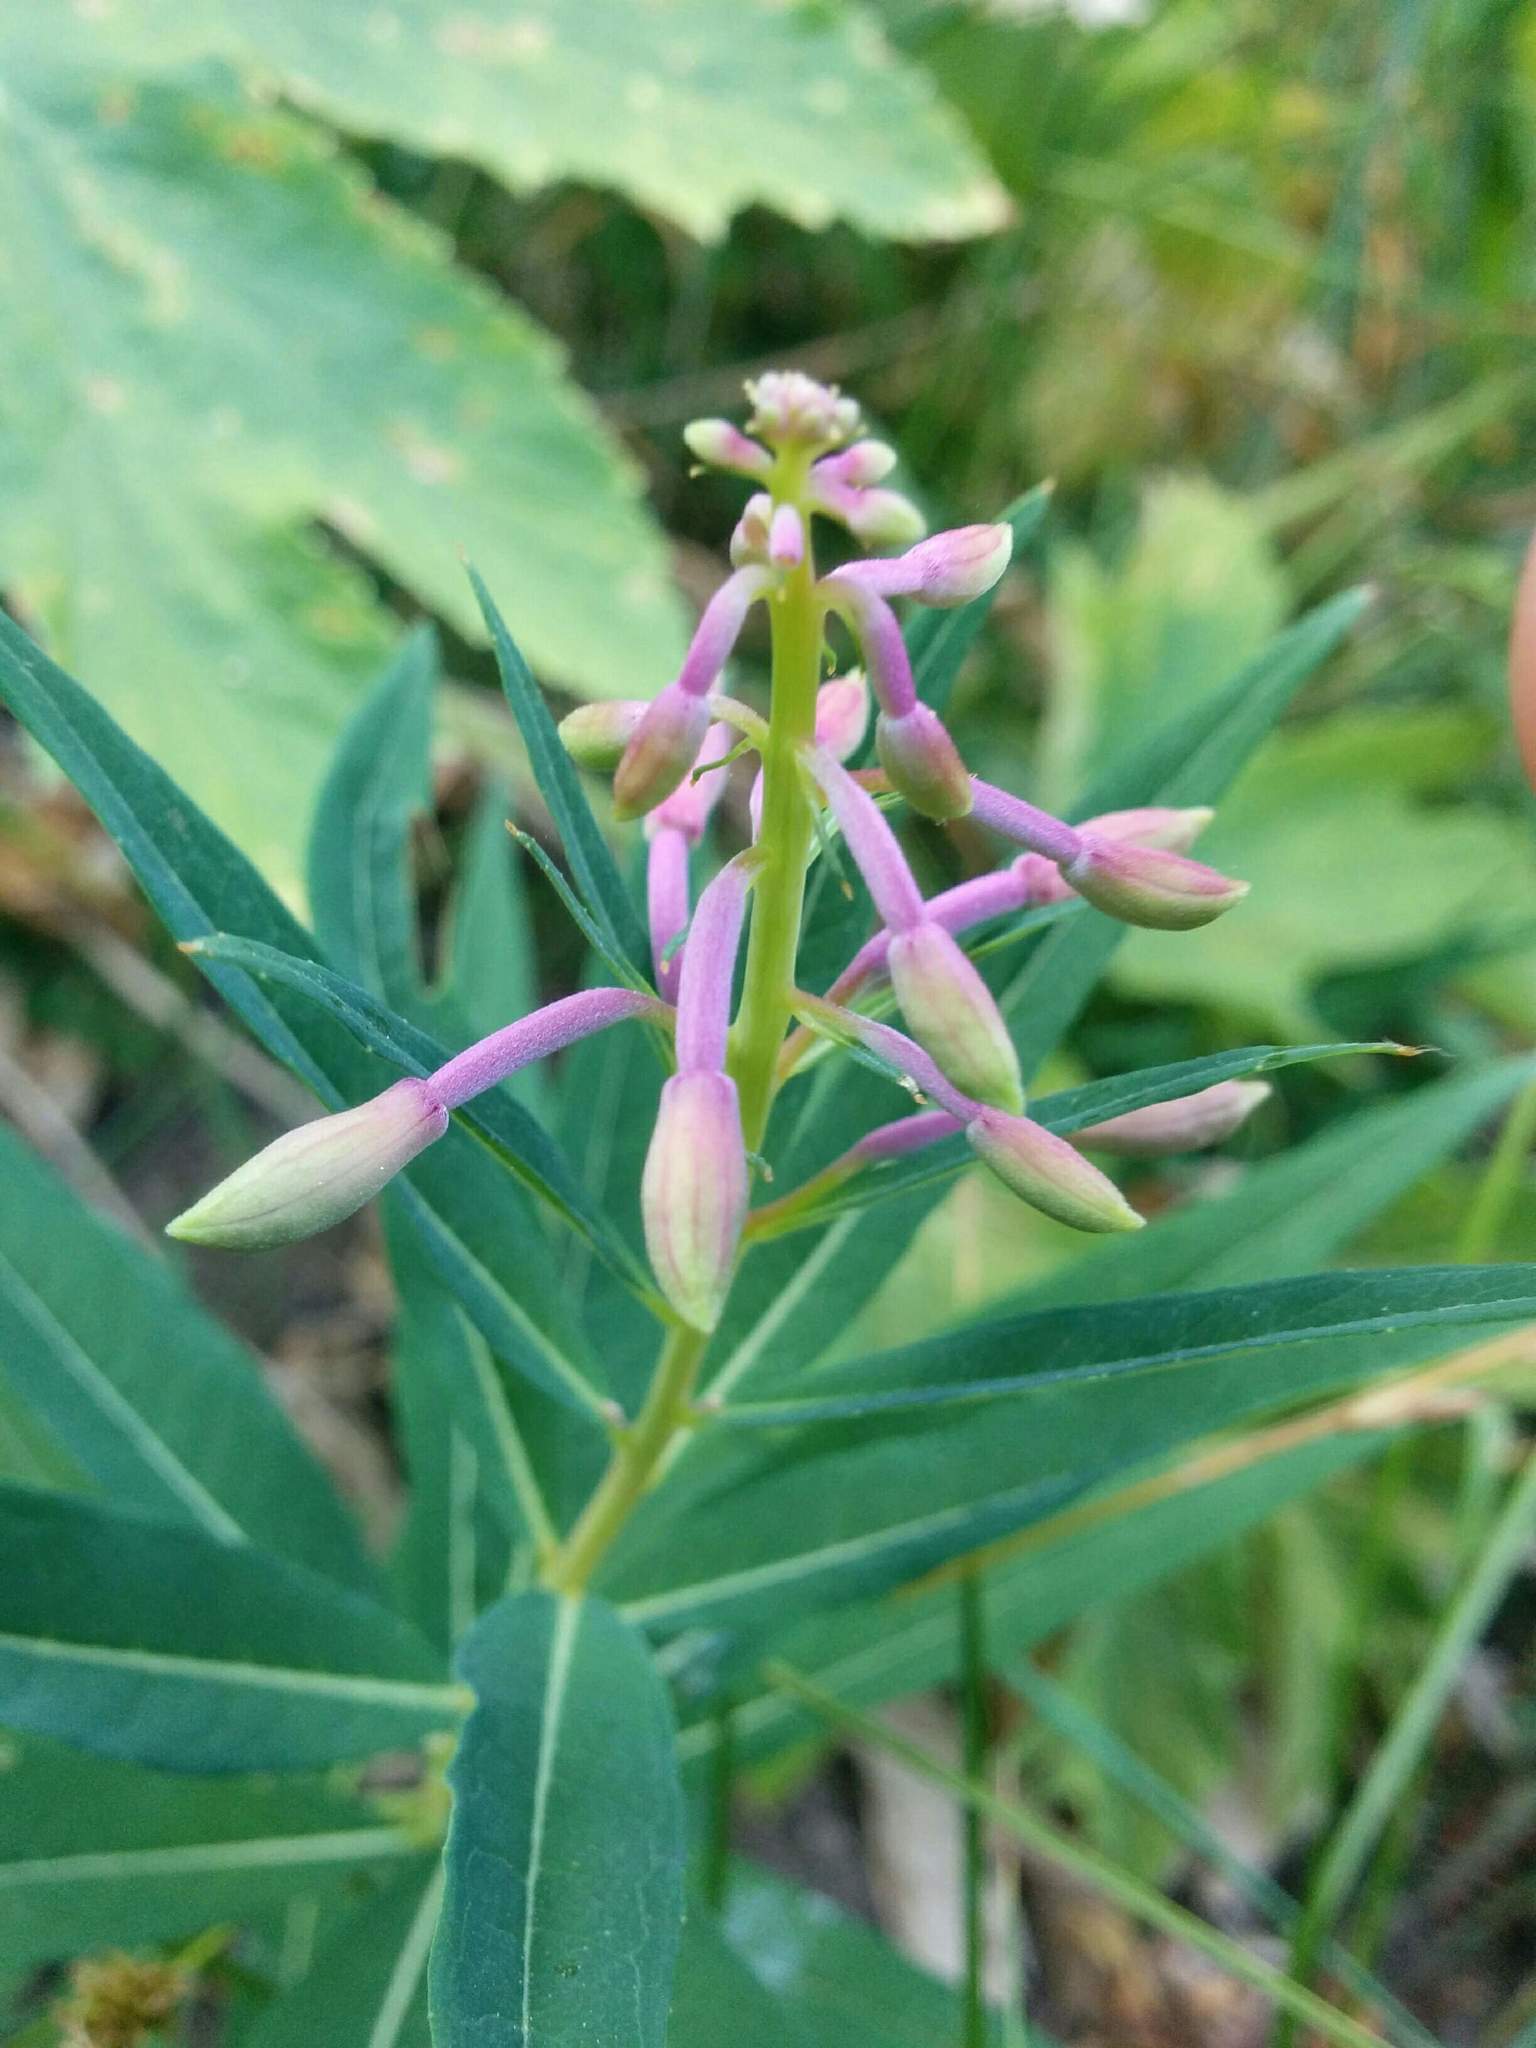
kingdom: Plantae
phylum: Tracheophyta
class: Magnoliopsida
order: Myrtales
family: Onagraceae
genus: Chamaenerion
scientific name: Chamaenerion angustifolium
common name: Fireweed
